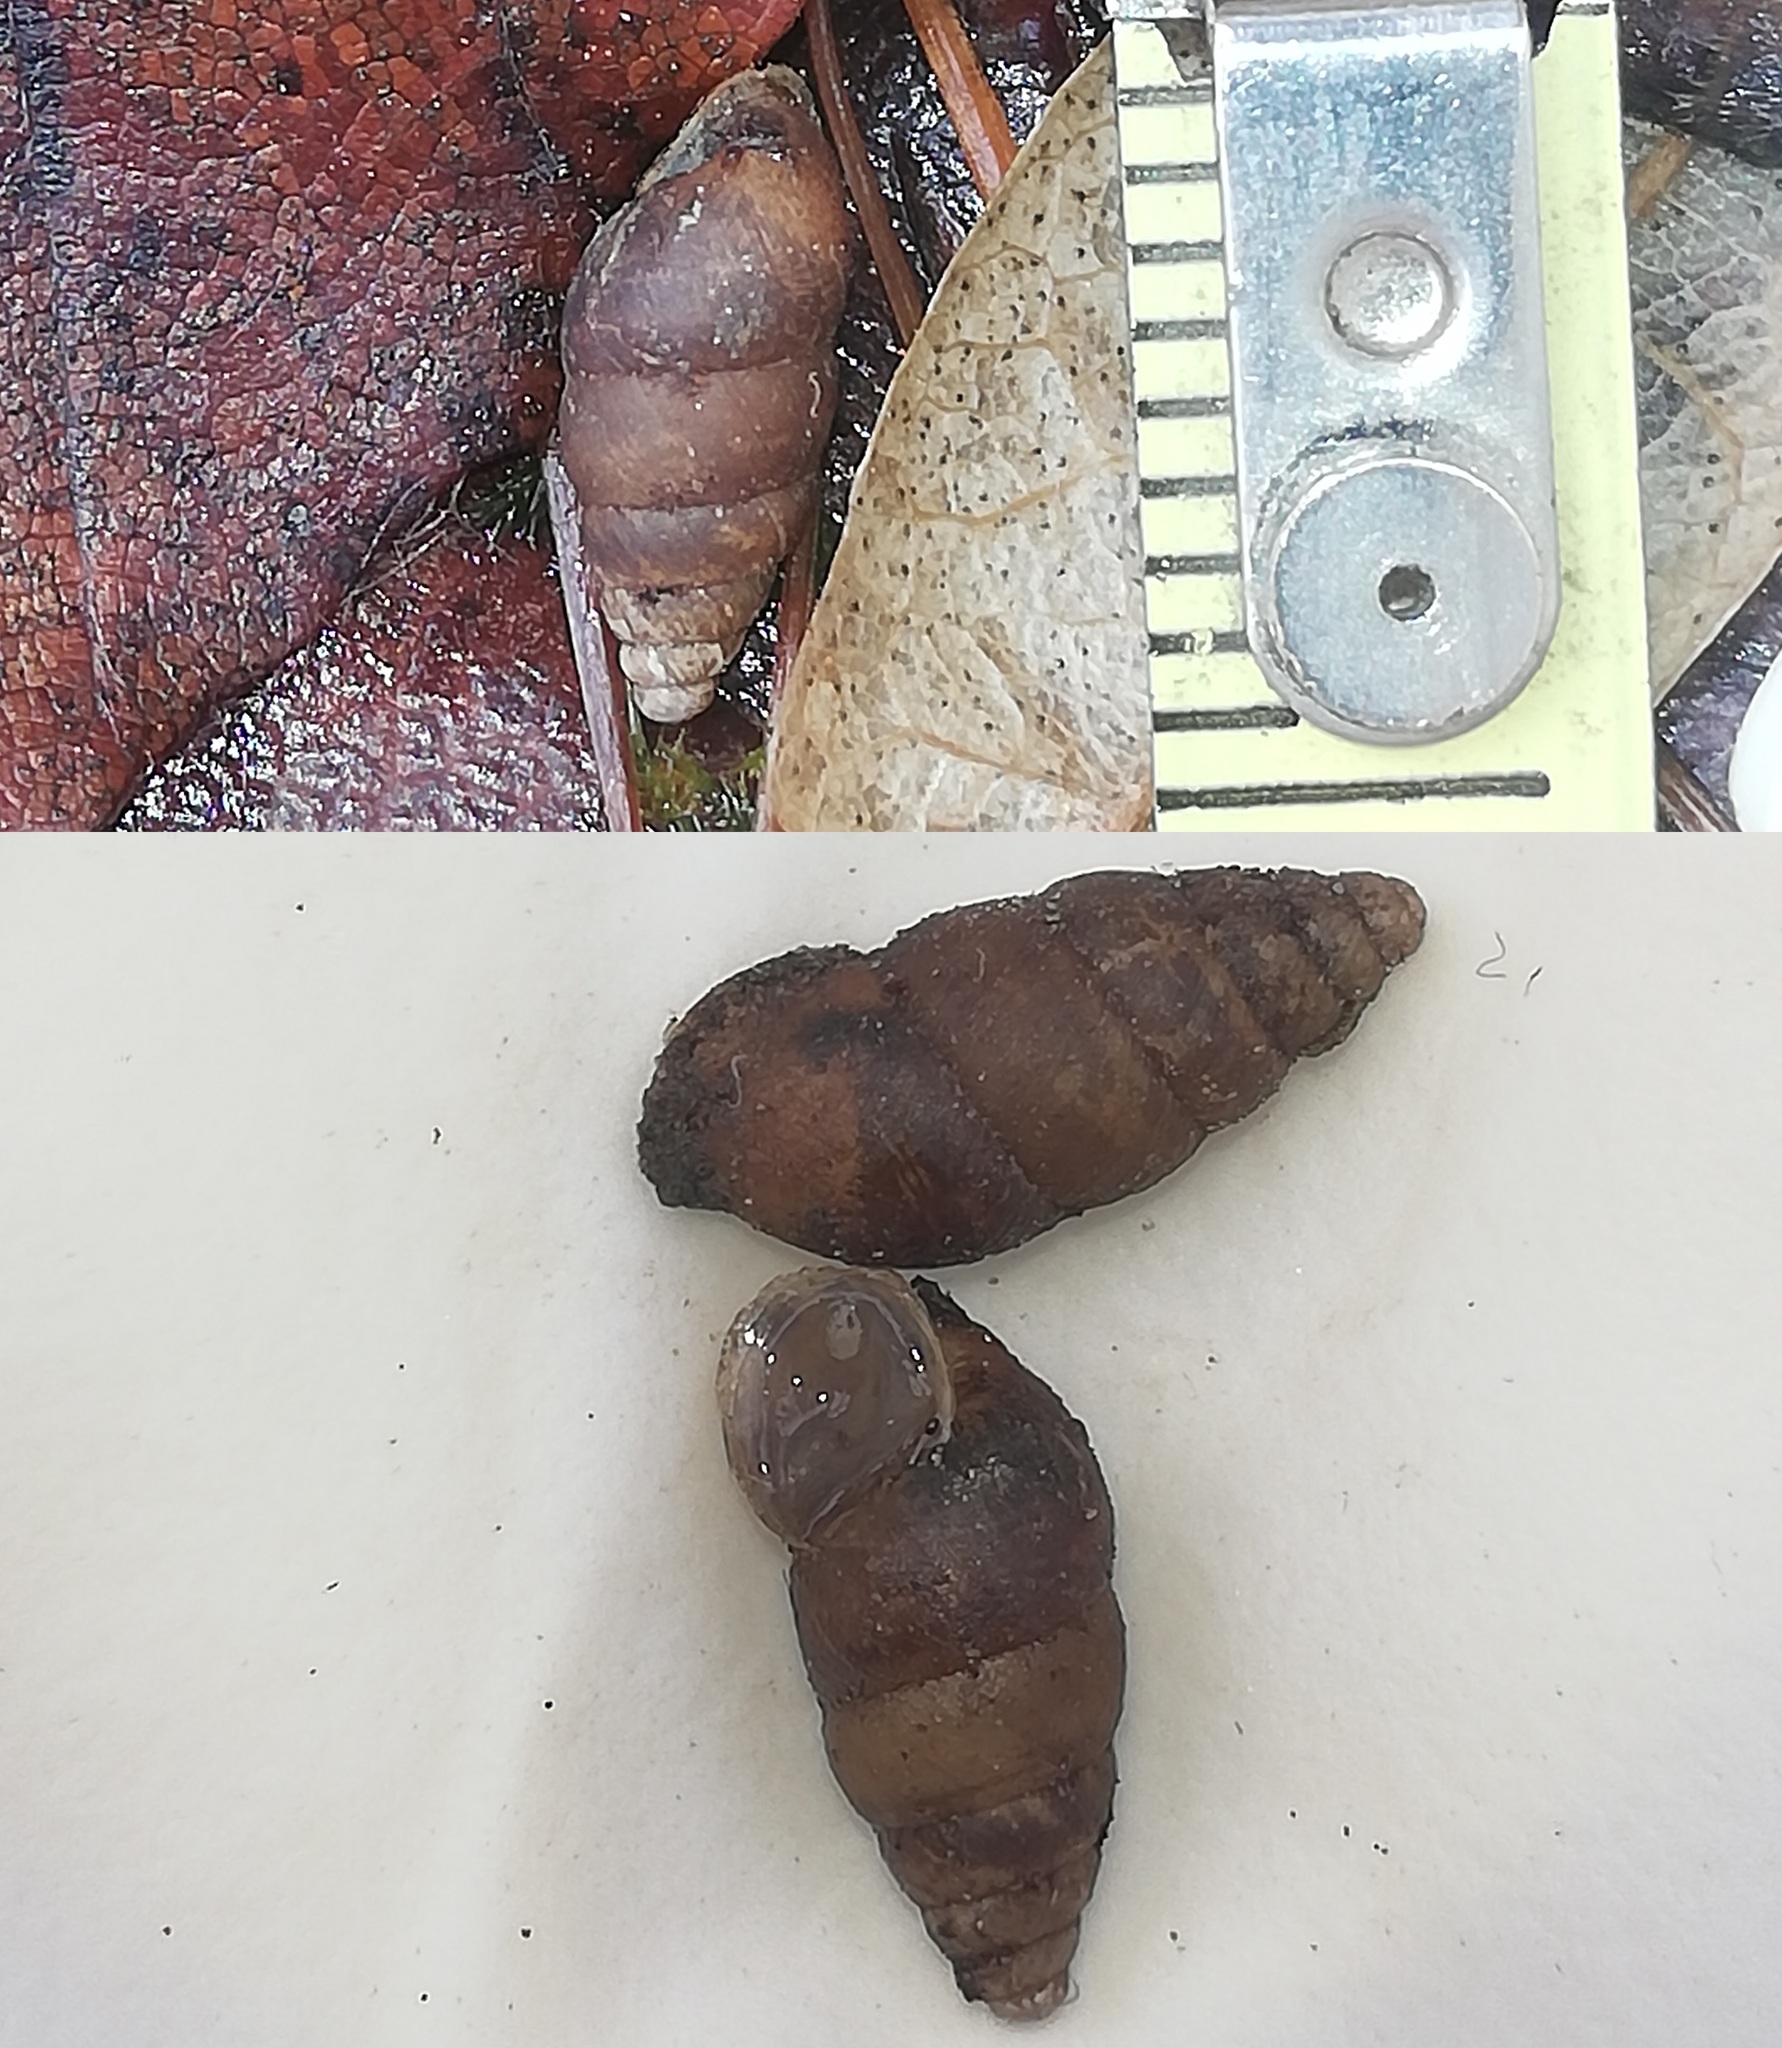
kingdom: Animalia
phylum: Mollusca
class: Gastropoda
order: Stylommatophora
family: Enidae
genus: Merdigera
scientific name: Merdigera obscura
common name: Lesser bulin
